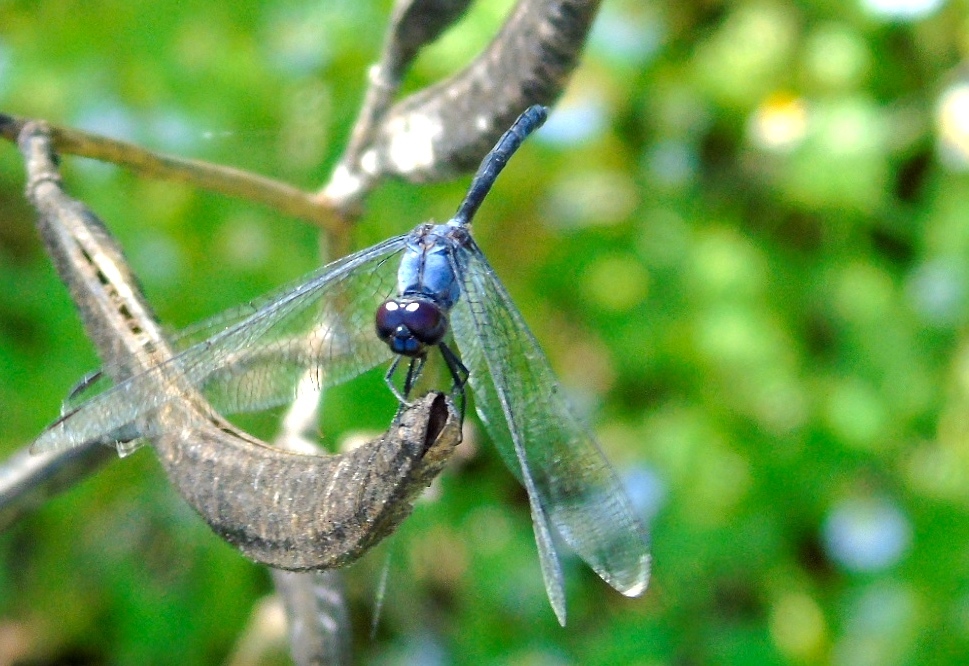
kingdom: Animalia
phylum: Arthropoda
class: Insecta
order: Odonata
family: Libellulidae
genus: Dythemis
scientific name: Dythemis nigrescens
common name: Black setwing
